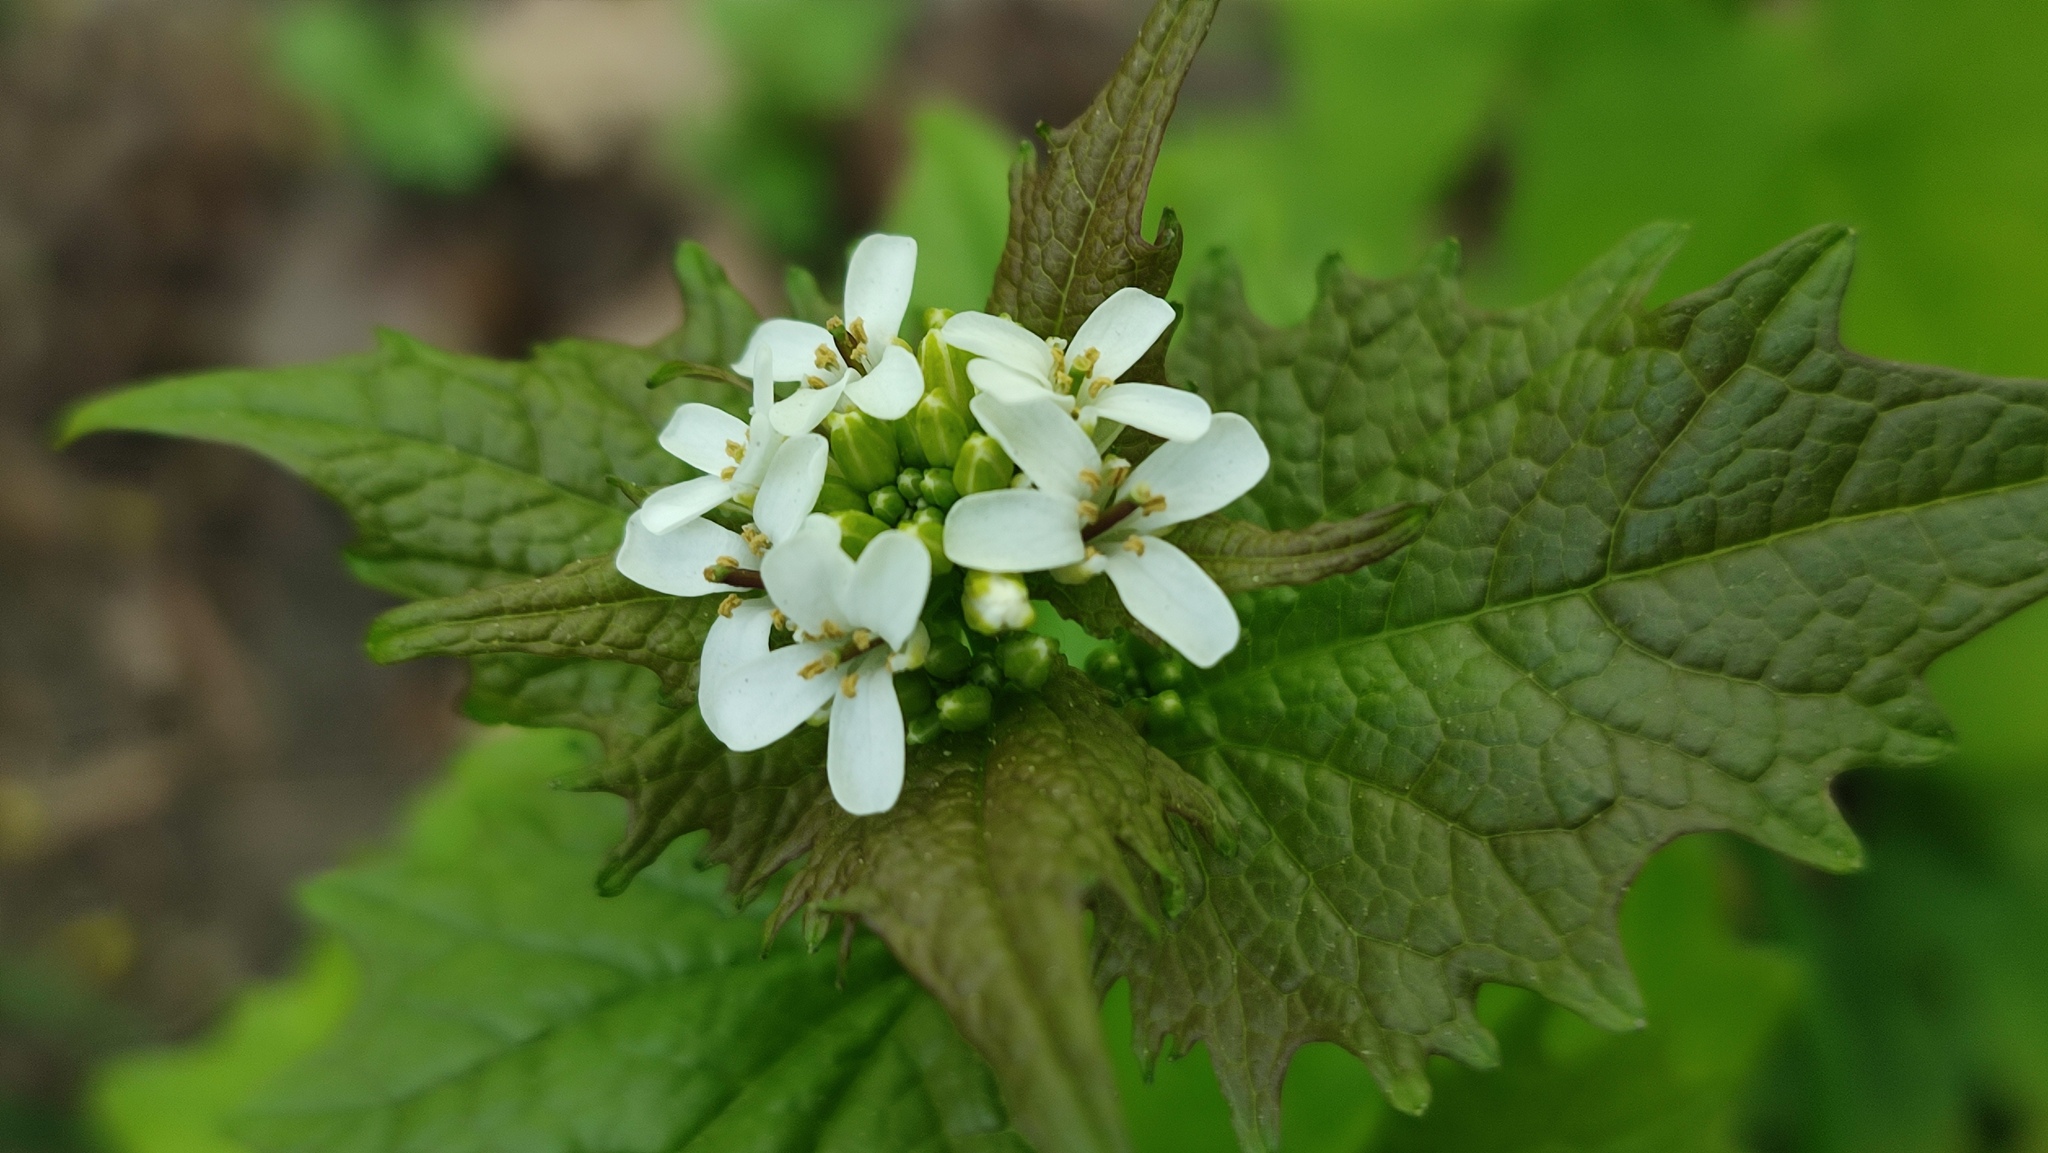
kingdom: Plantae
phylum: Tracheophyta
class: Magnoliopsida
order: Brassicales
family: Brassicaceae
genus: Alliaria
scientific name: Alliaria petiolata
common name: Garlic mustard
